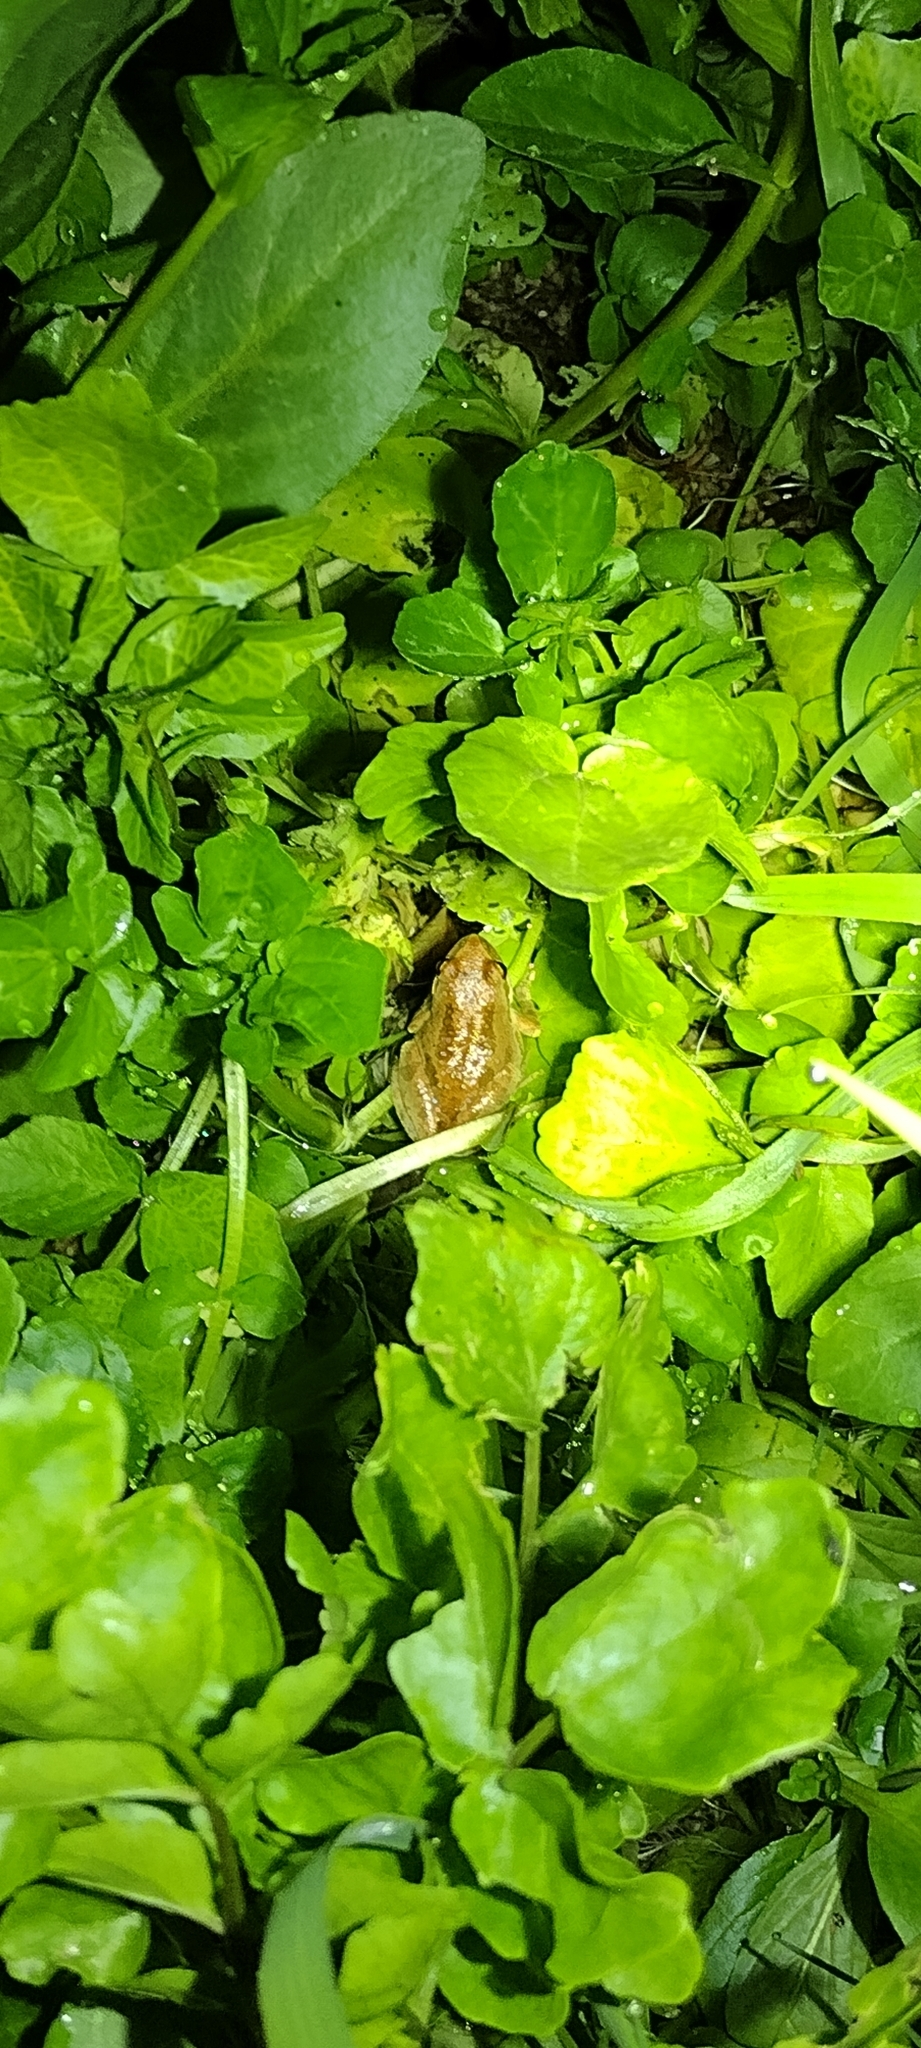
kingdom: Animalia
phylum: Chordata
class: Amphibia
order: Anura
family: Hylidae
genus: Pseudacris
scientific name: Pseudacris regilla
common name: Pacific chorus frog
